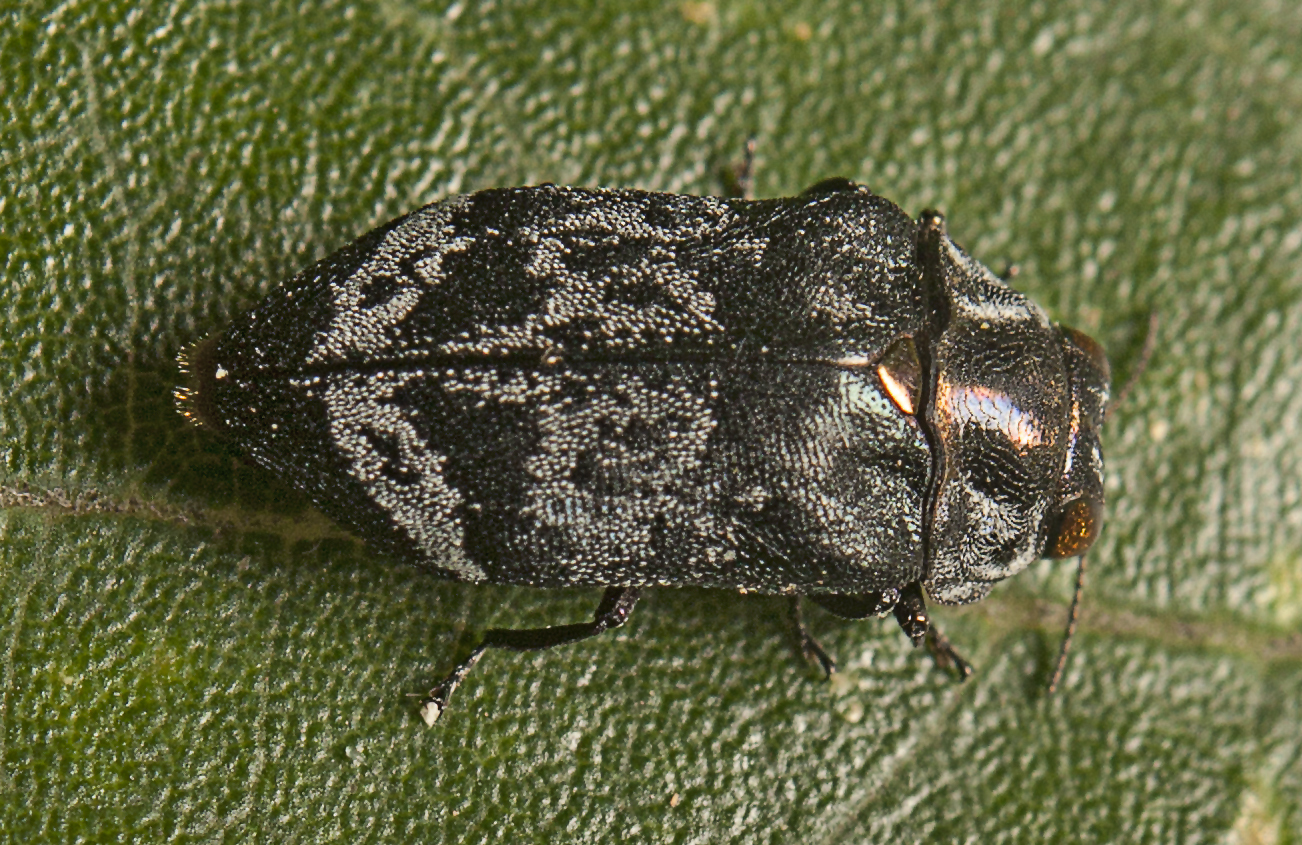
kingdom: Animalia
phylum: Arthropoda
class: Insecta
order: Coleoptera
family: Buprestidae
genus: Hypocisseis
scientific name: Hypocisseis nigrosericea
